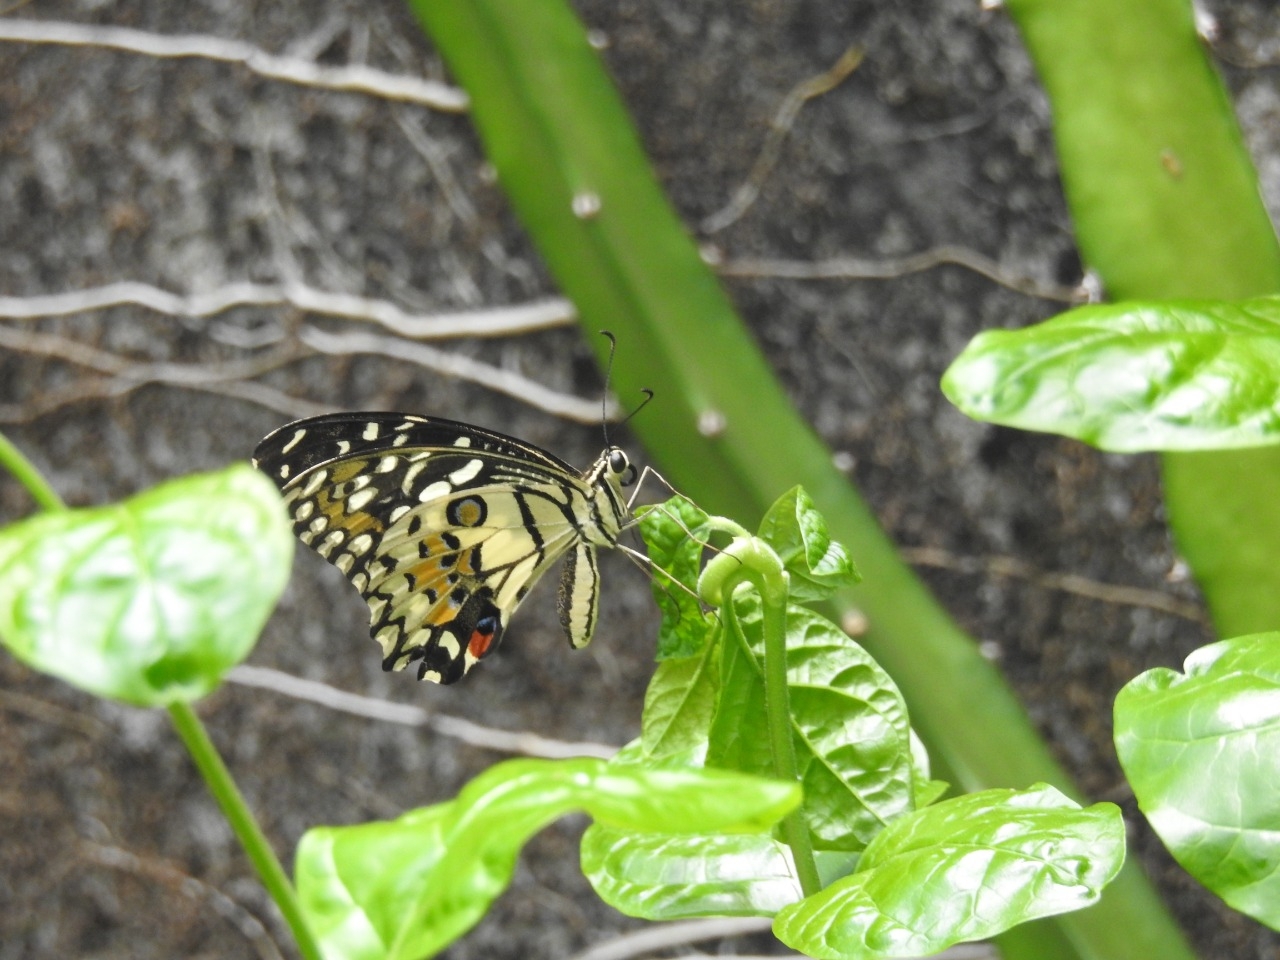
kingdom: Animalia
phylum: Arthropoda
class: Insecta
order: Lepidoptera
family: Papilionidae
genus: Papilio
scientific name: Papilio demoleus
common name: Lime butterfly
